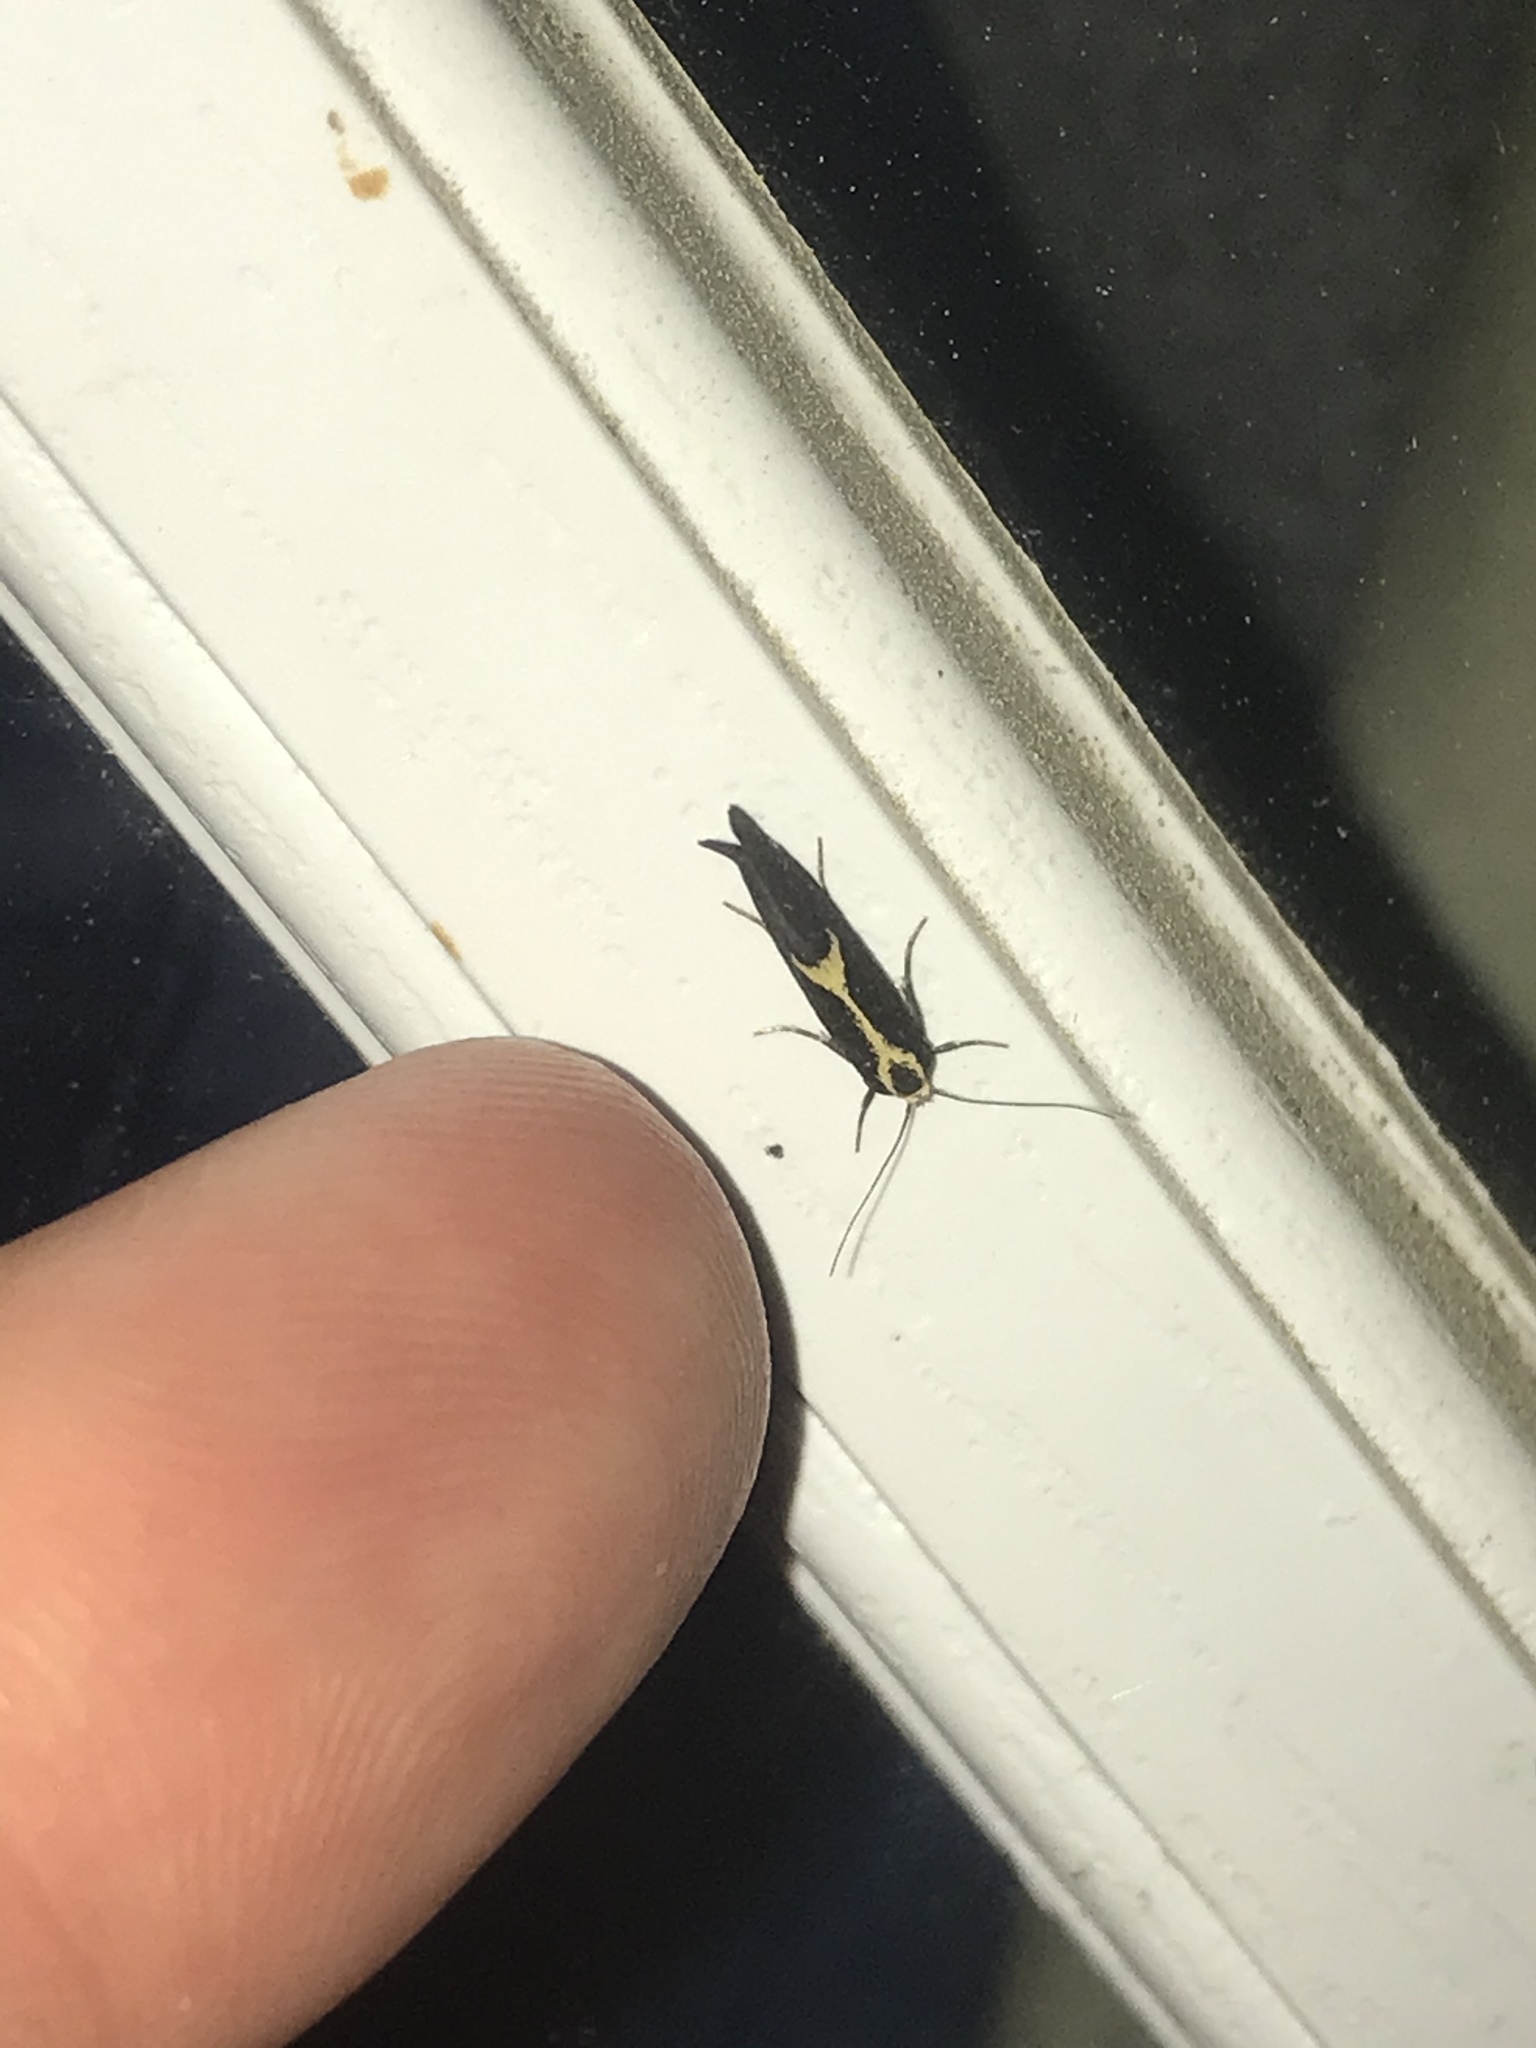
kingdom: Animalia
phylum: Arthropoda
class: Insecta
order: Lepidoptera
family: Oecophoridae
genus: Polix
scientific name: Polix coloradella
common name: Skunk moth
